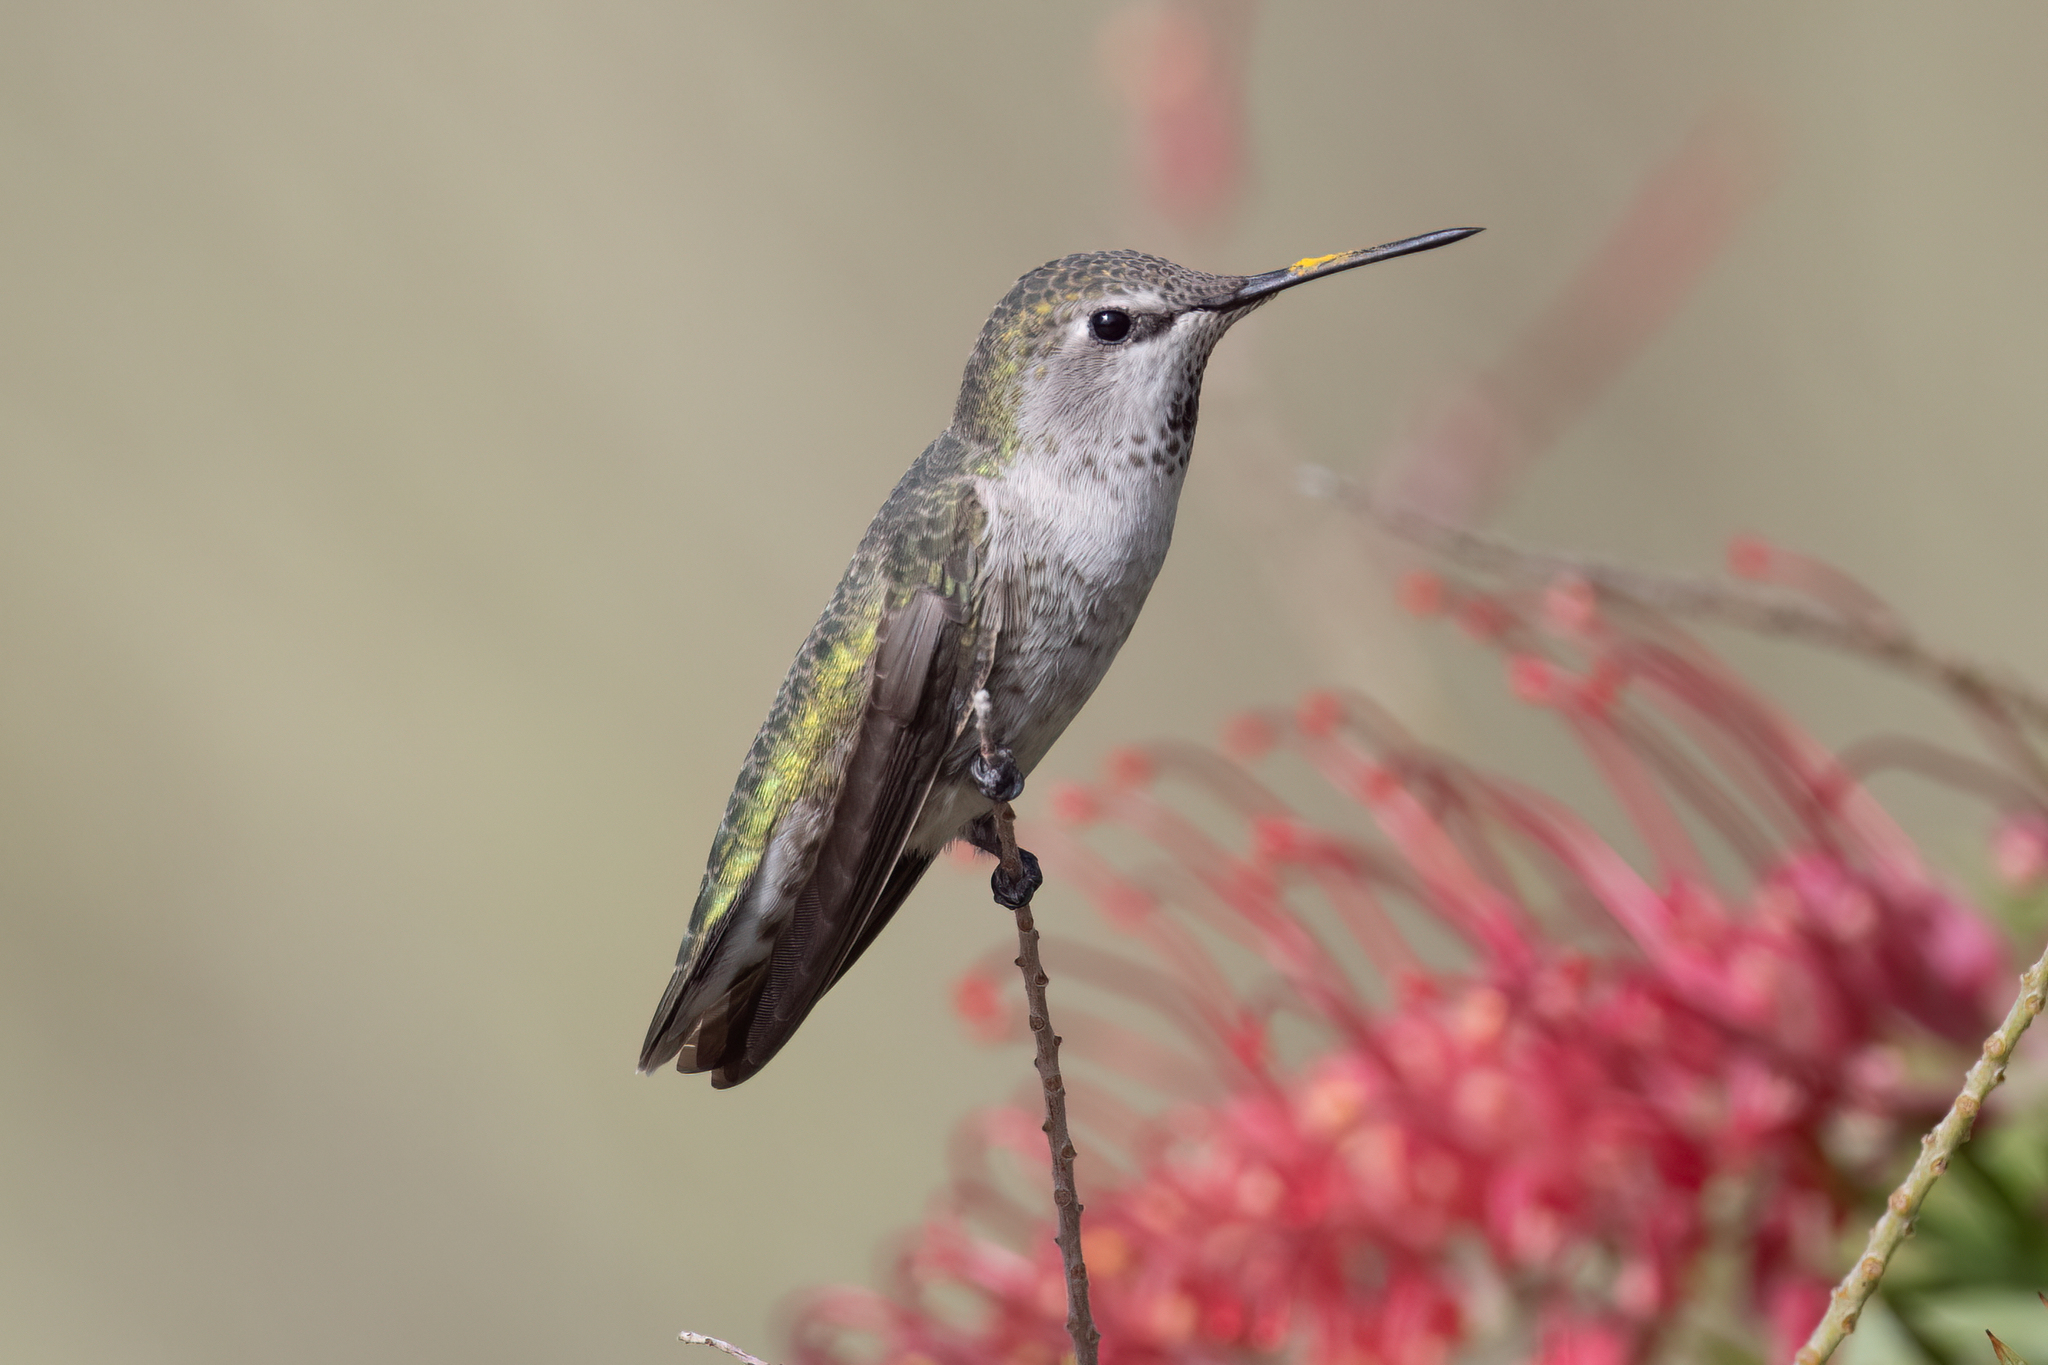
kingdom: Animalia
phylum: Chordata
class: Aves
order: Apodiformes
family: Trochilidae
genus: Calypte
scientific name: Calypte anna
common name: Anna's hummingbird
